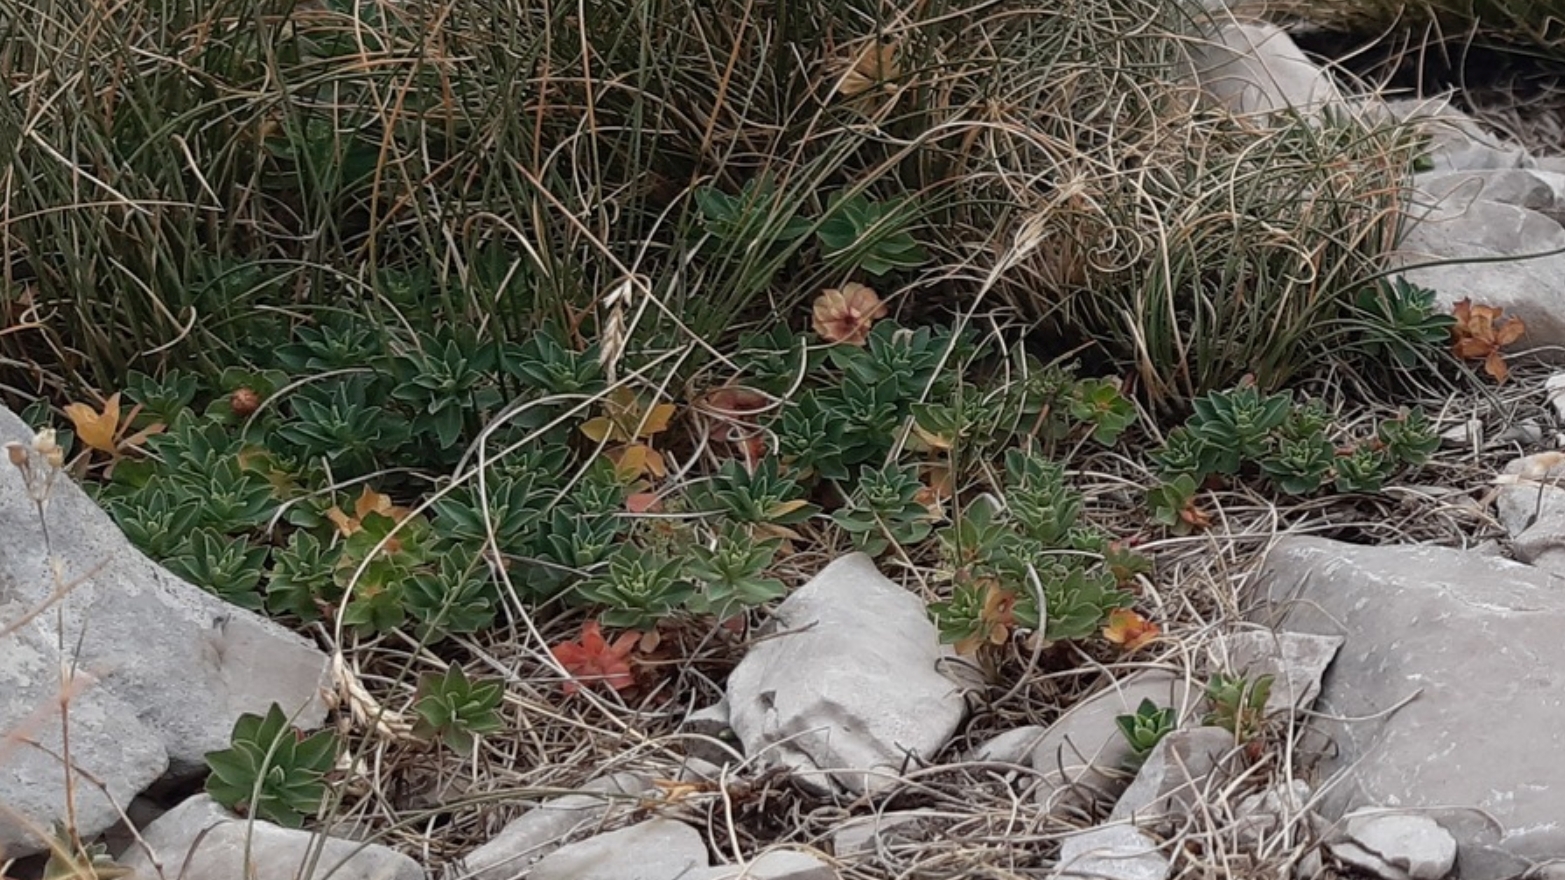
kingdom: Plantae
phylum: Tracheophyta
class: Magnoliopsida
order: Malpighiales
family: Euphorbiaceae
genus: Euphorbia
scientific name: Euphorbia capitulata
